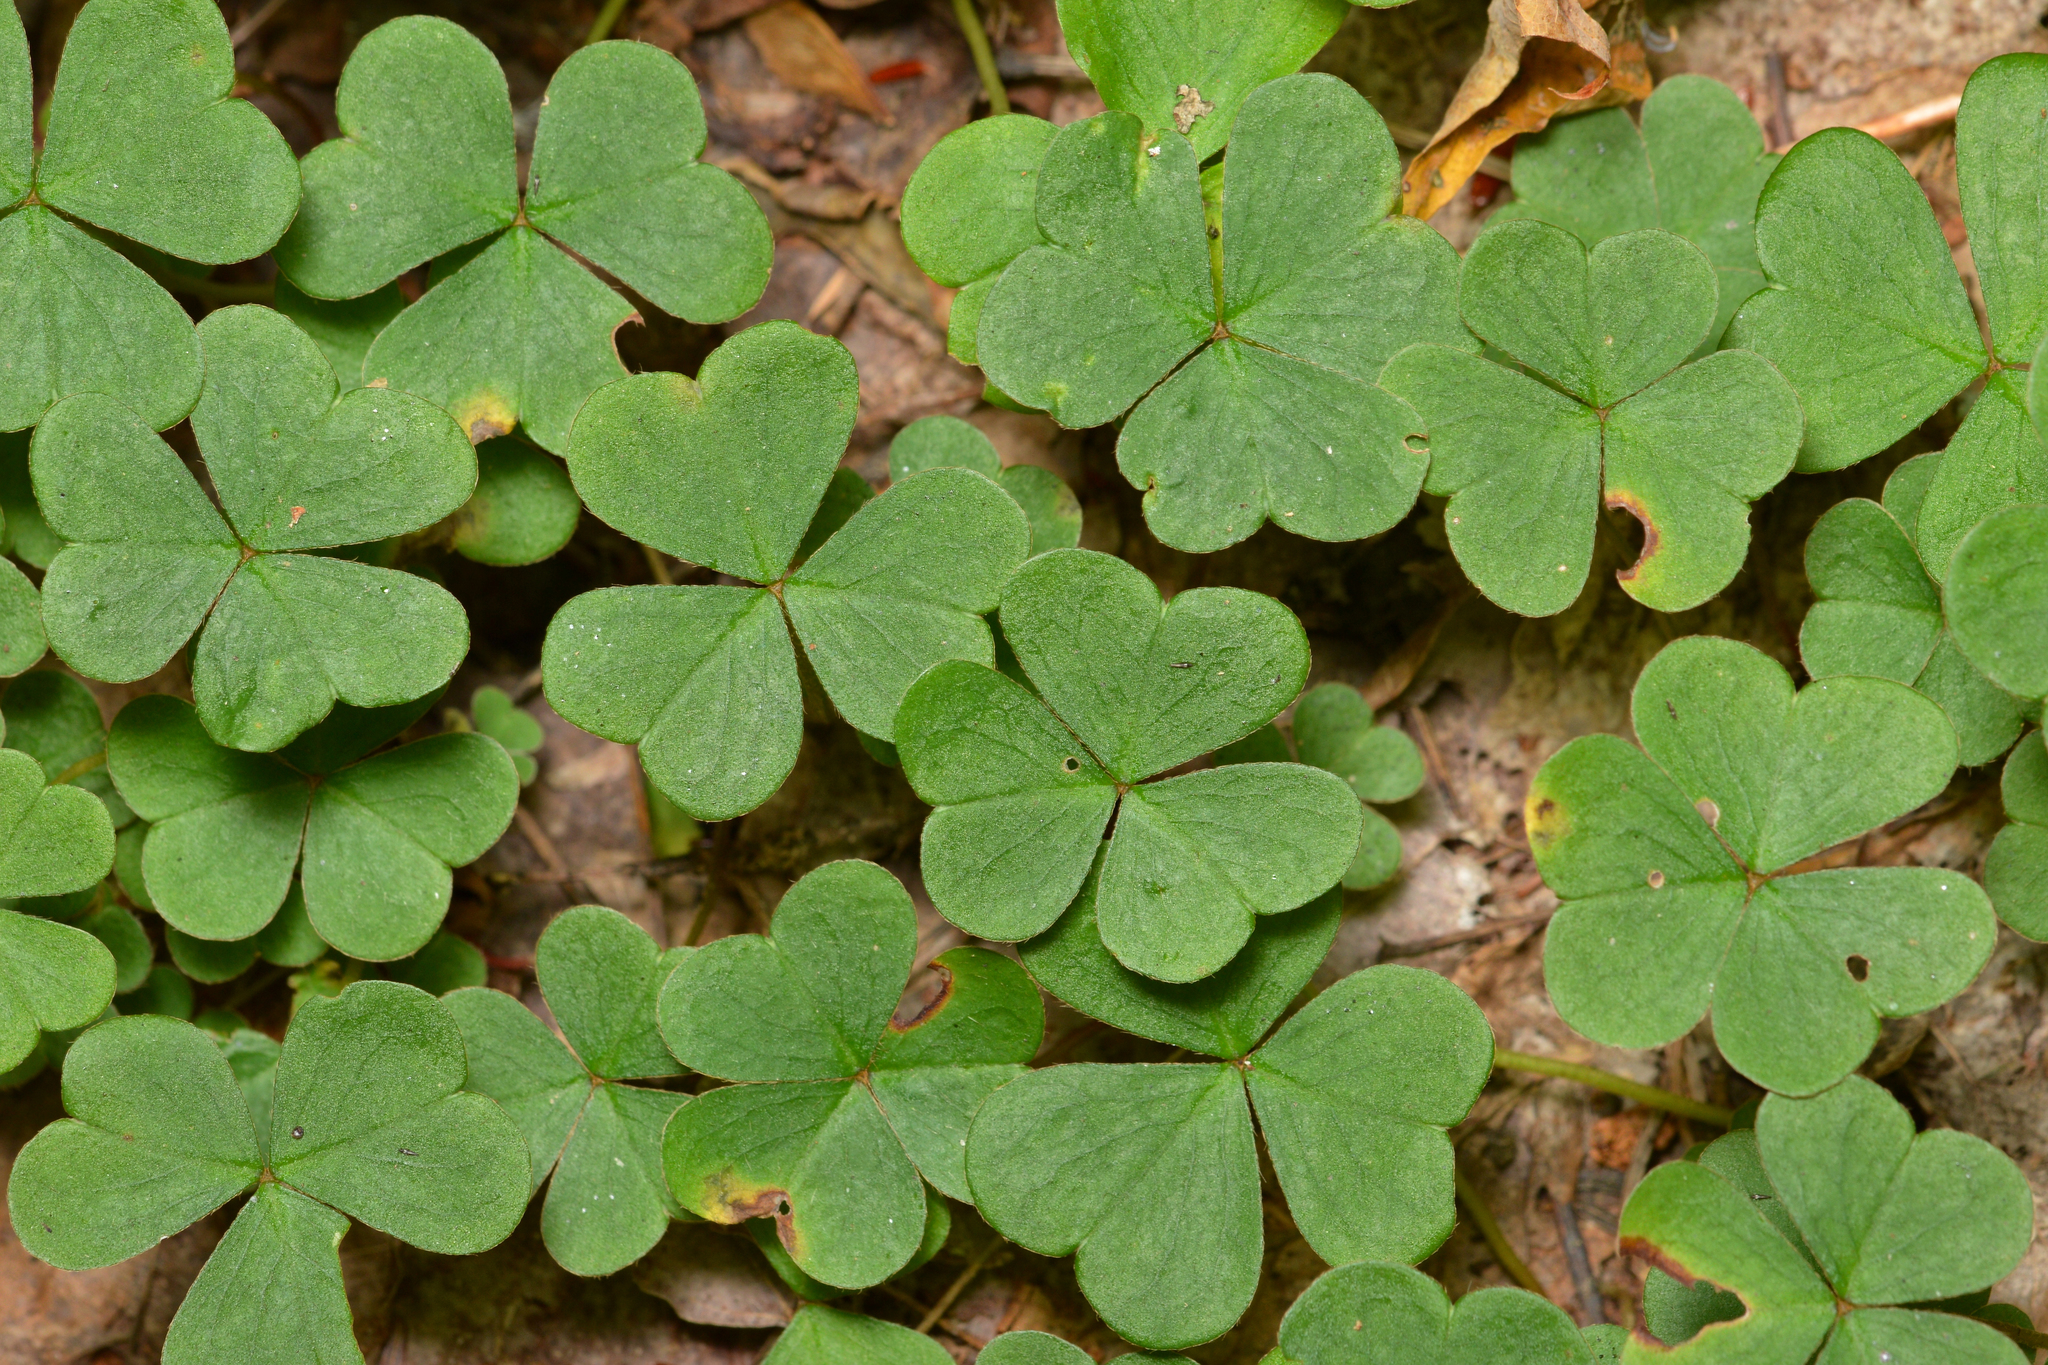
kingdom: Plantae
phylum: Tracheophyta
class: Magnoliopsida
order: Oxalidales
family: Oxalidaceae
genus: Oxalis
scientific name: Oxalis montana
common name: American wood-sorrel
